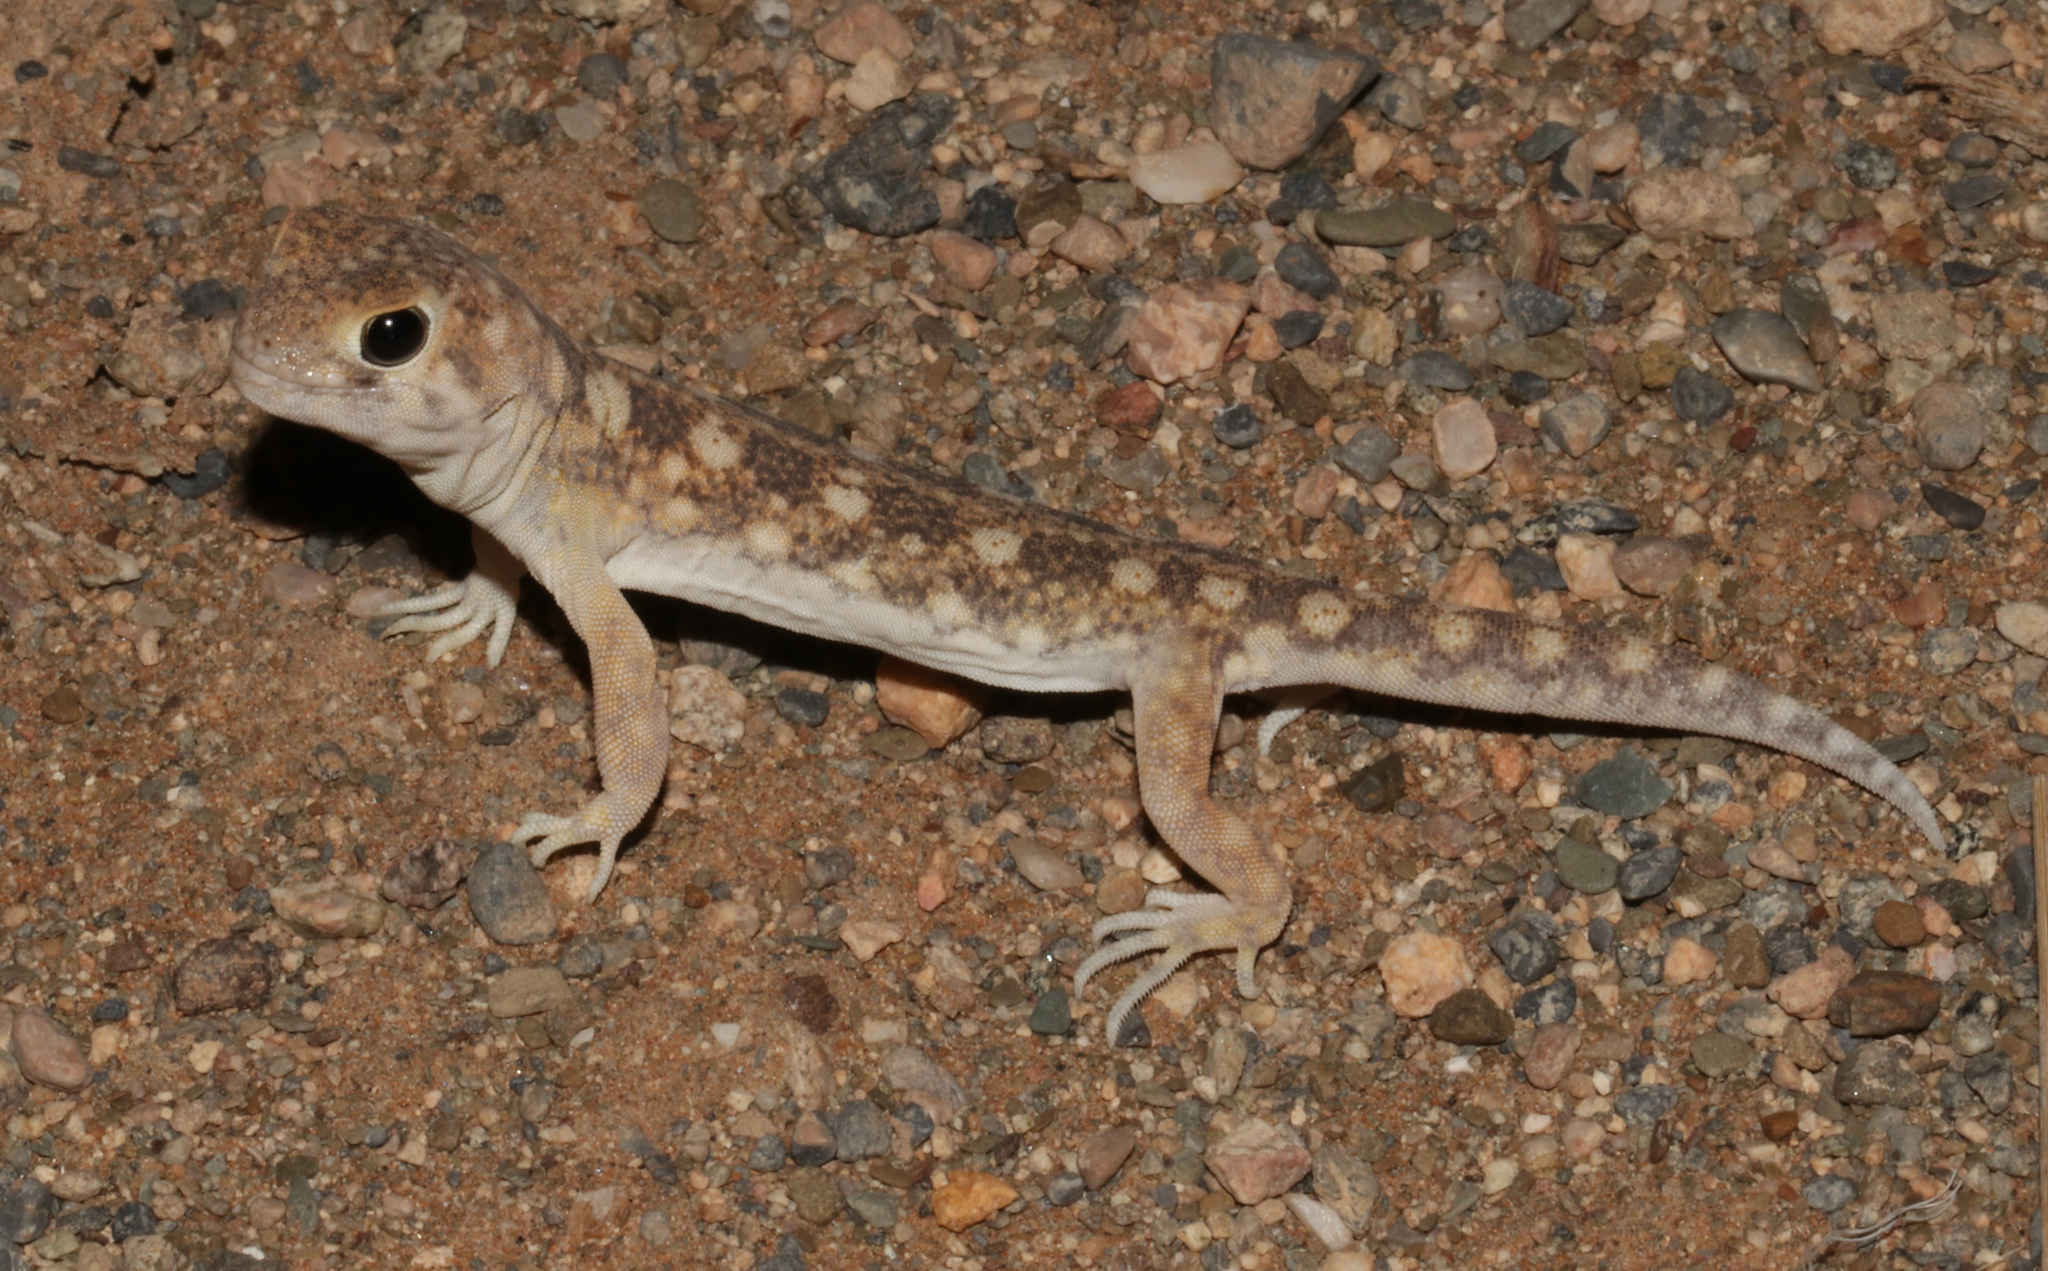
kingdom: Animalia
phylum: Chordata
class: Squamata
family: Gekkonidae
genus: Ptenopus
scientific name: Ptenopus garrulus
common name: Whistling gecko
